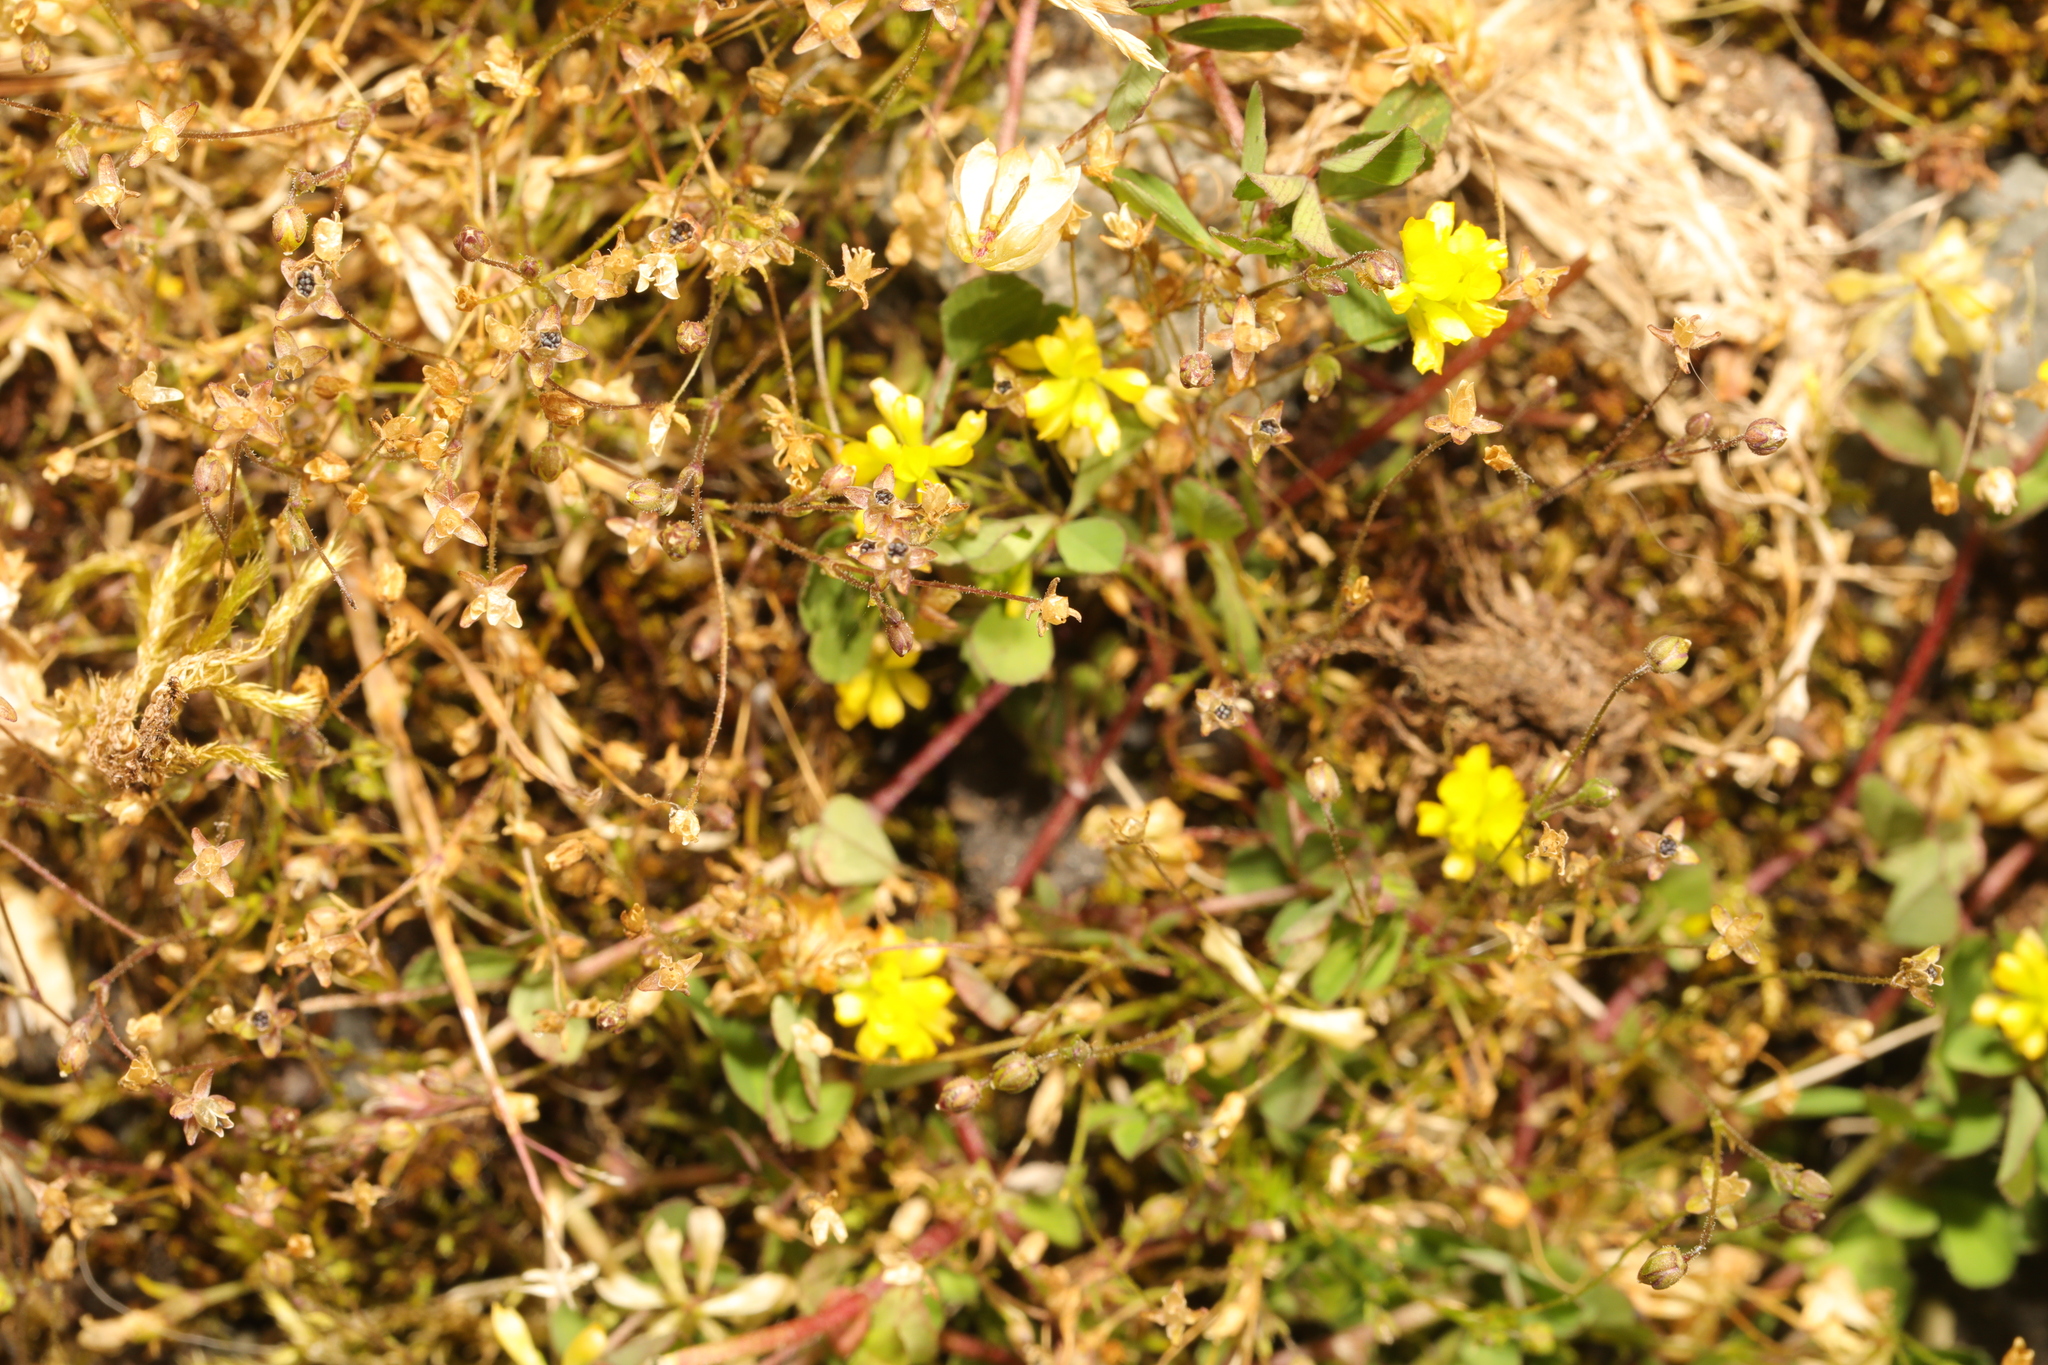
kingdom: Plantae
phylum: Tracheophyta
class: Magnoliopsida
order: Fabales
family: Fabaceae
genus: Trifolium
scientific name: Trifolium dubium
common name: Suckling clover
